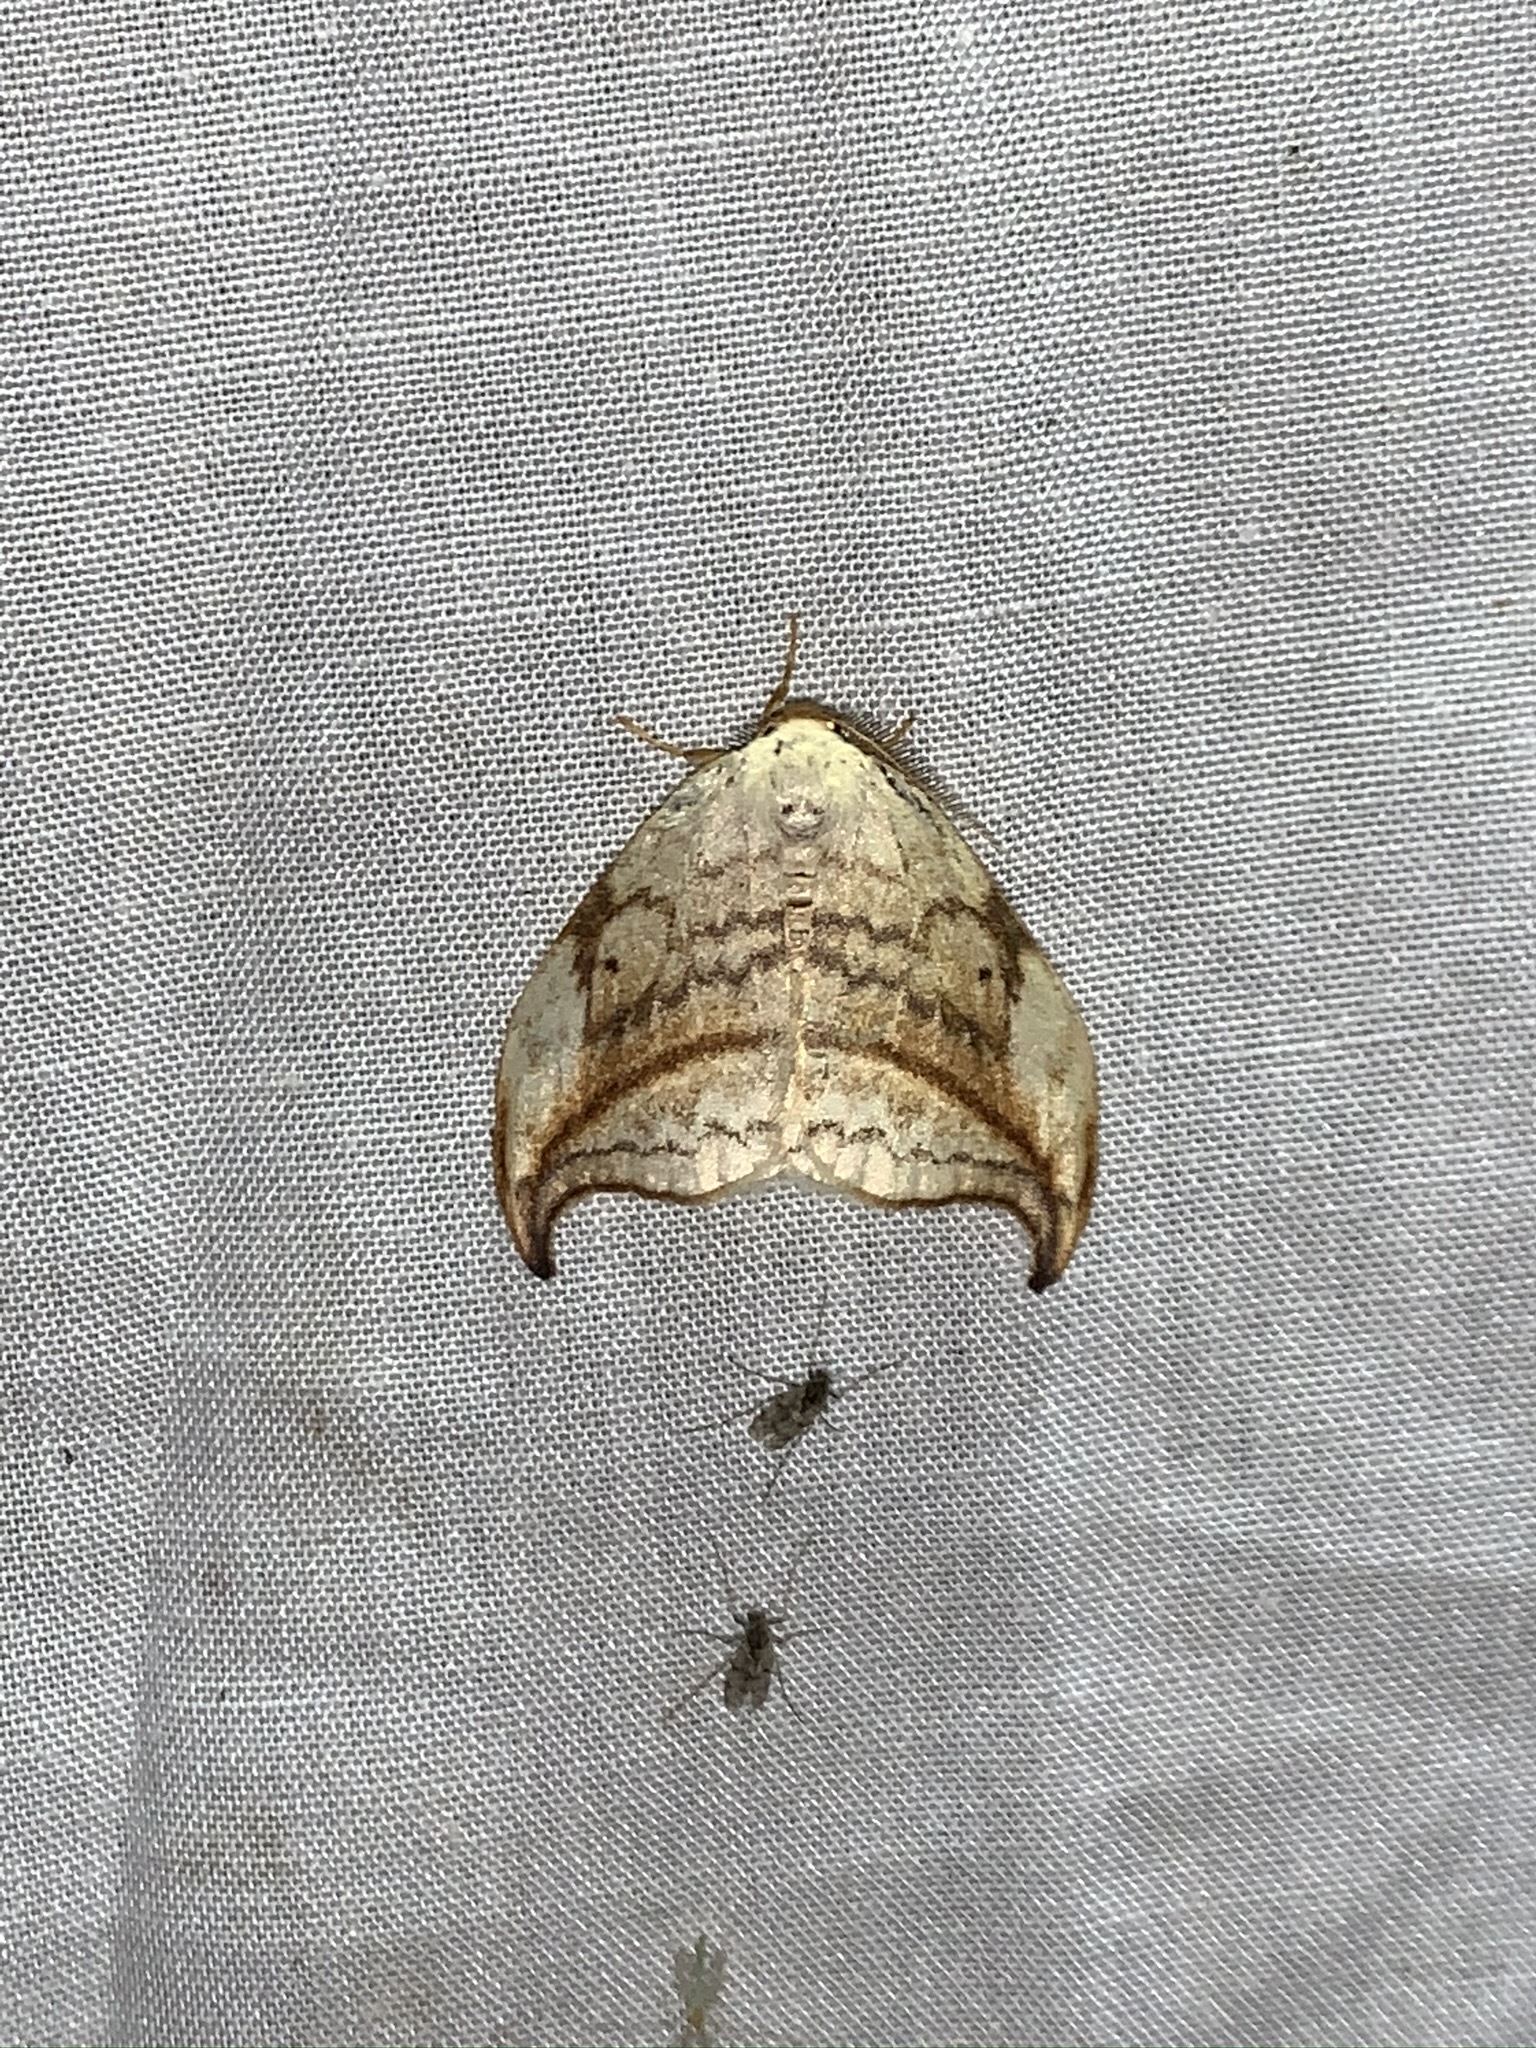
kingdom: Animalia
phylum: Arthropoda
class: Insecta
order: Lepidoptera
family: Drepanidae
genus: Drepana
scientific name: Drepana arcuata
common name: Arched hooktip moth
